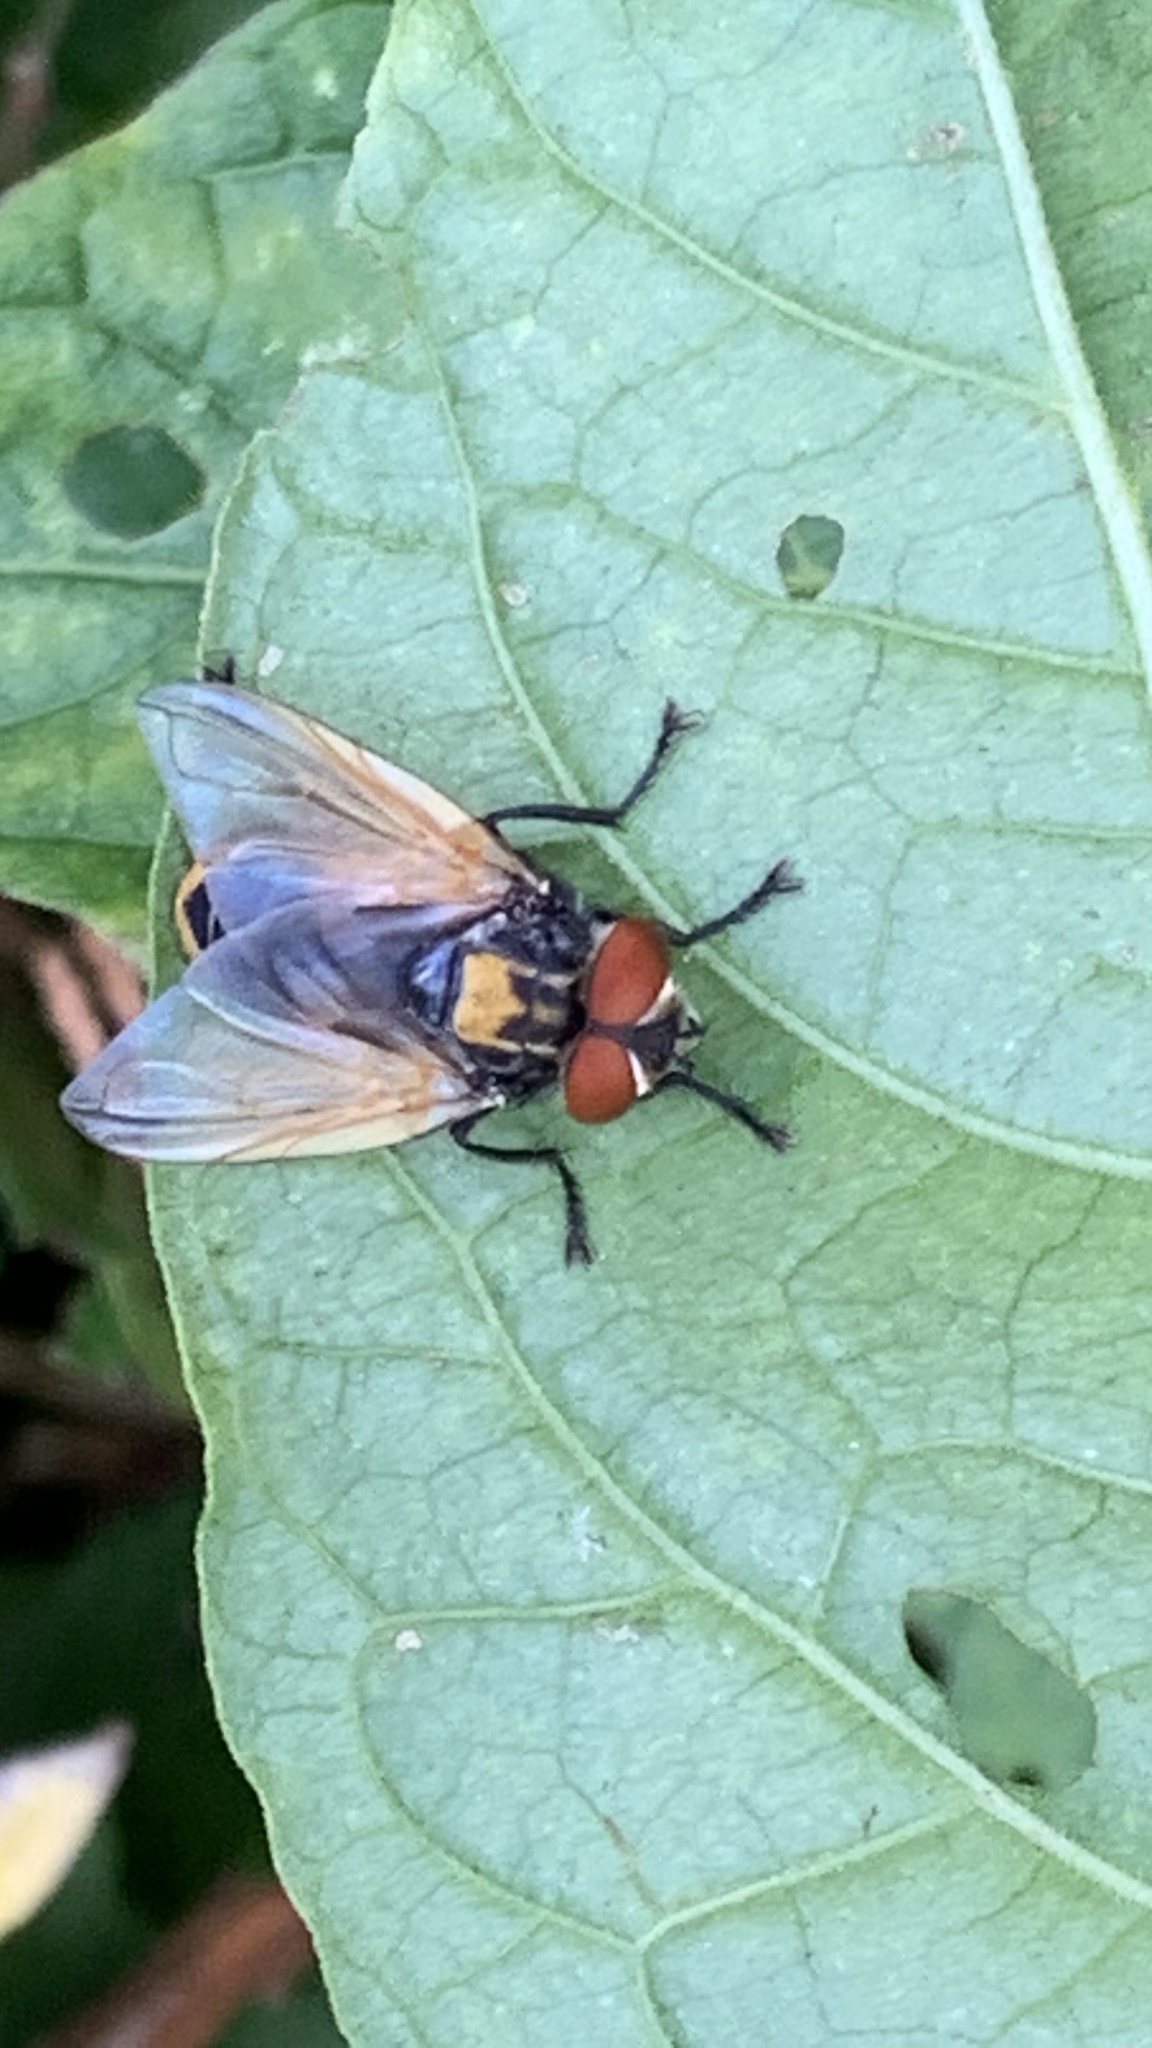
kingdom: Animalia
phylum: Arthropoda
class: Insecta
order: Diptera
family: Tachinidae
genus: Phasia
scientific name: Phasia aurigera
